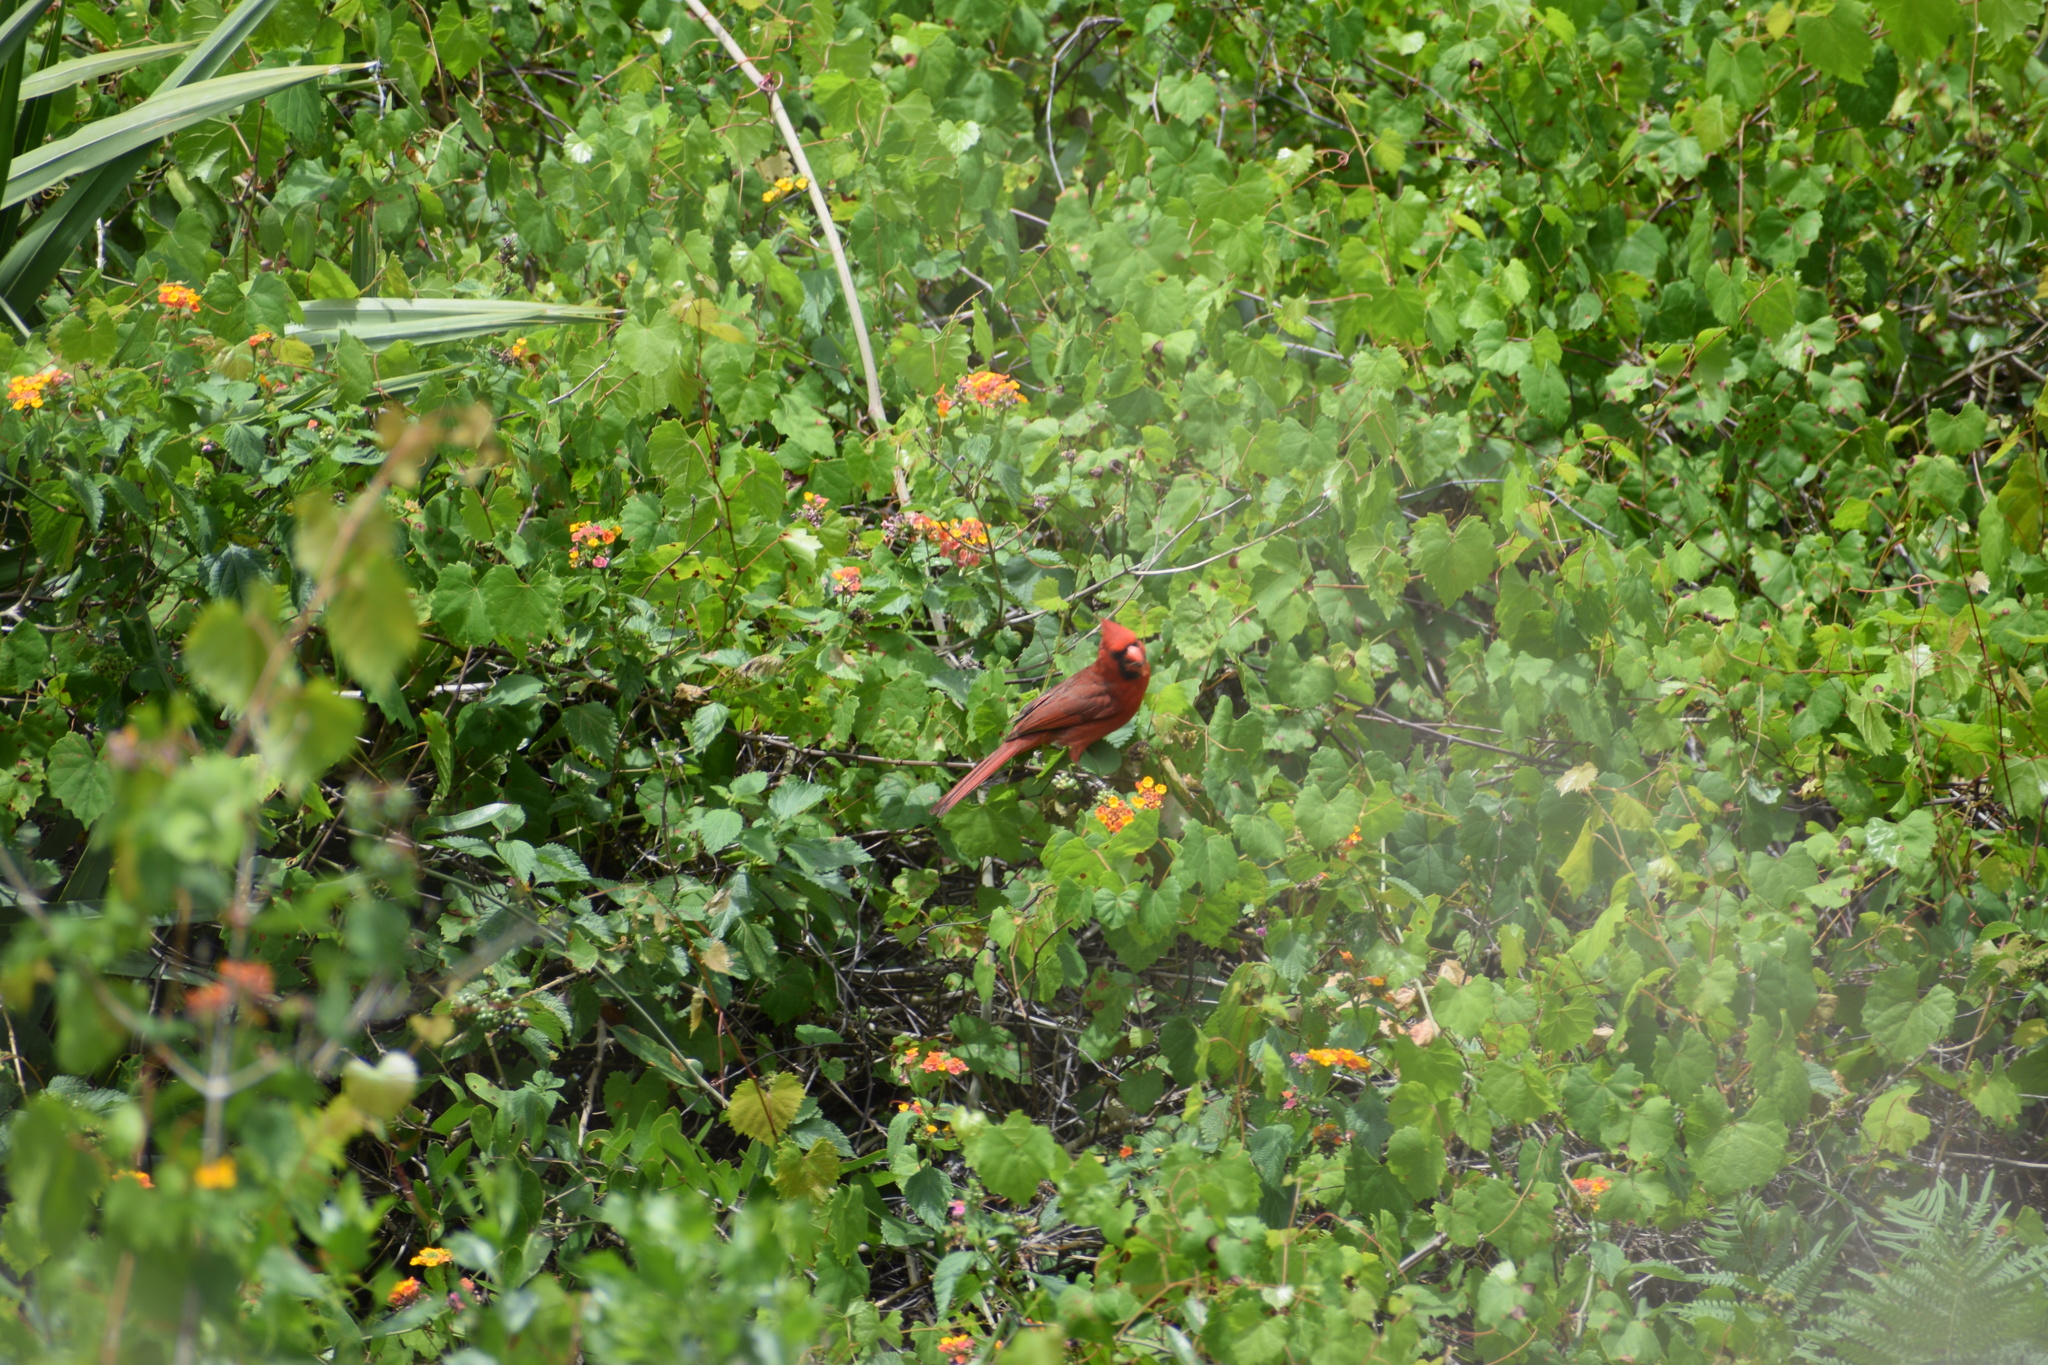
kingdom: Animalia
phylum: Chordata
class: Aves
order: Passeriformes
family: Cardinalidae
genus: Cardinalis
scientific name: Cardinalis cardinalis
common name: Northern cardinal
